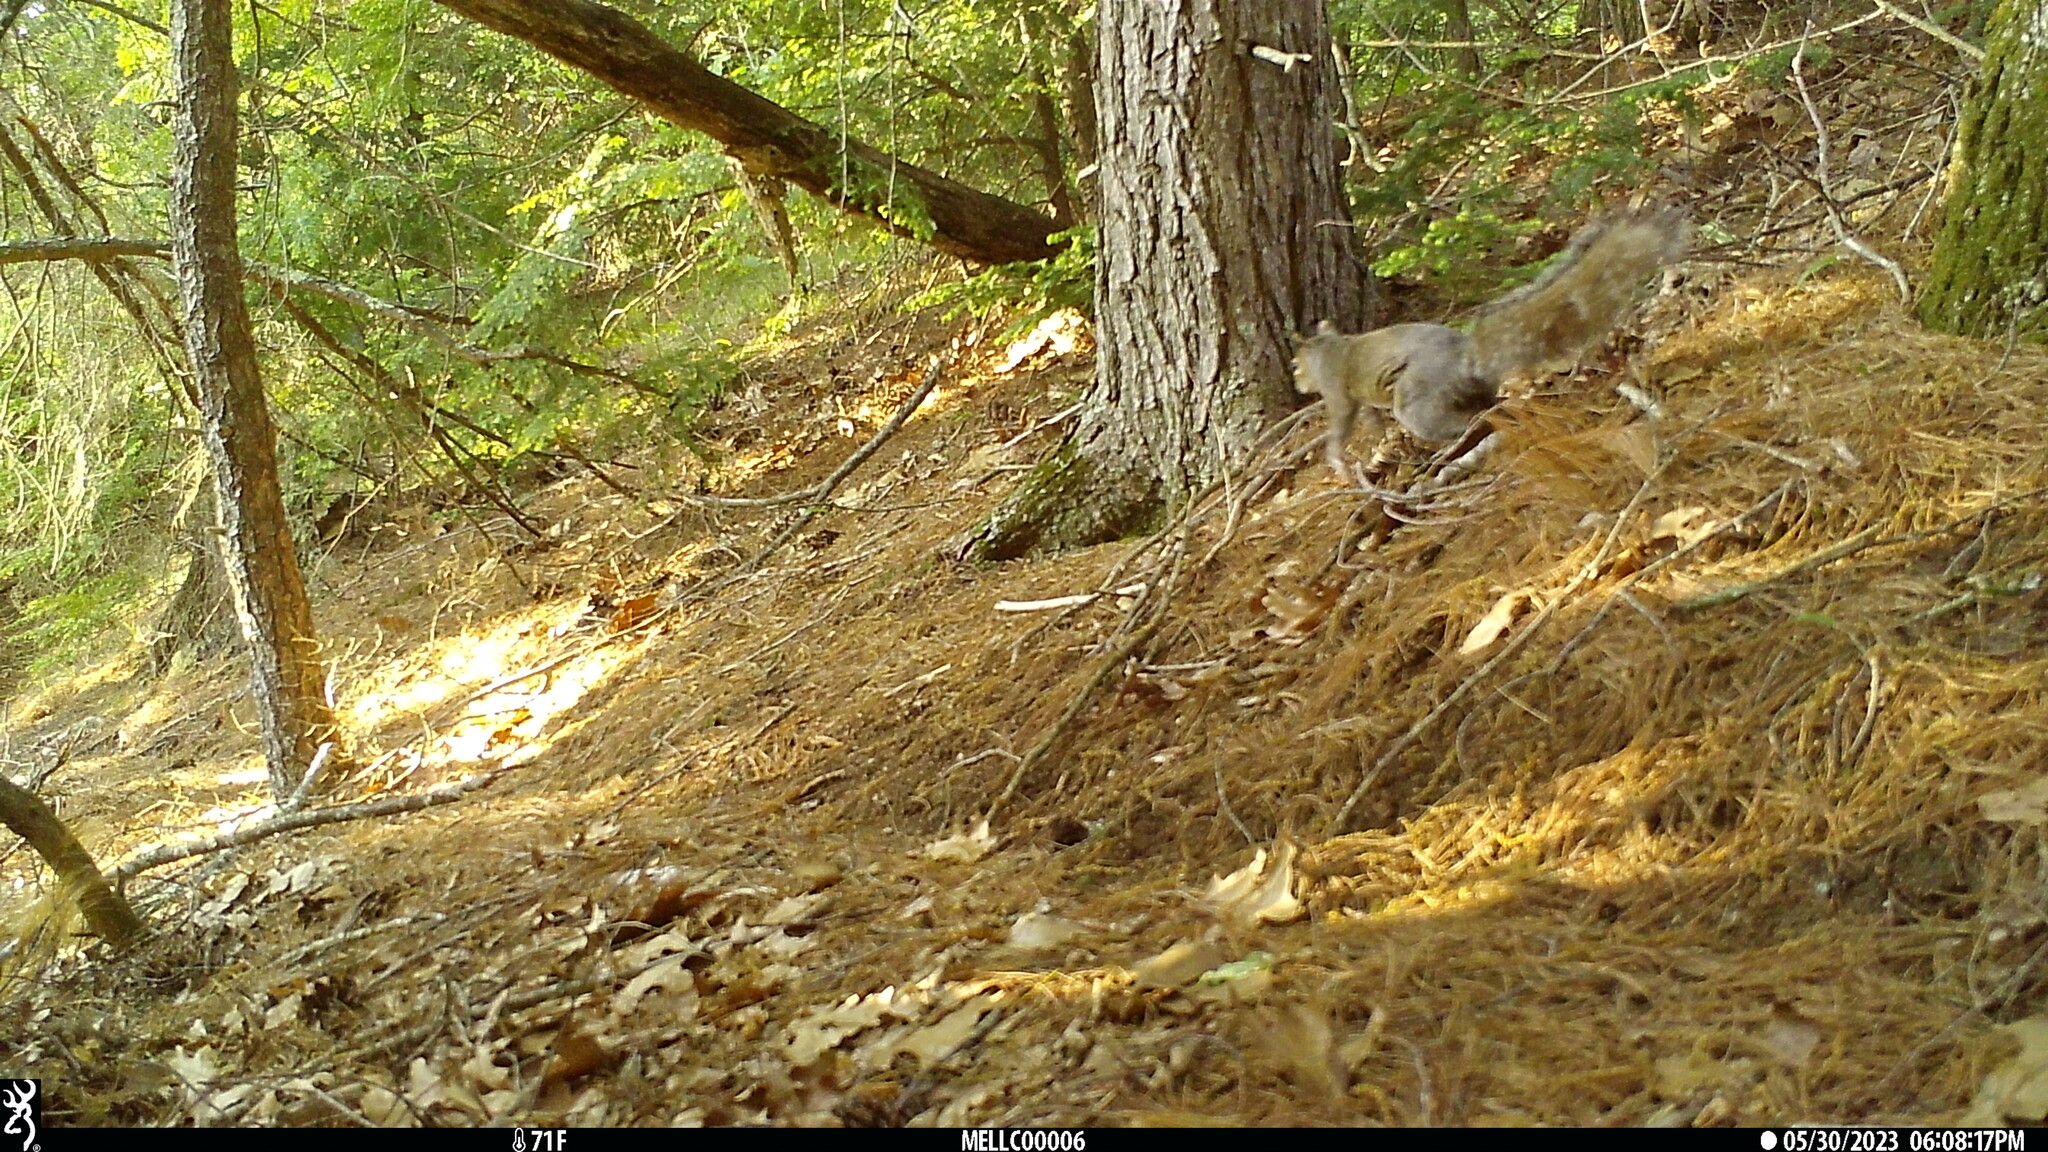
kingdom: Animalia
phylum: Chordata
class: Mammalia
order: Rodentia
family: Sciuridae
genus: Sciurus
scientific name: Sciurus carolinensis
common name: Eastern gray squirrel
